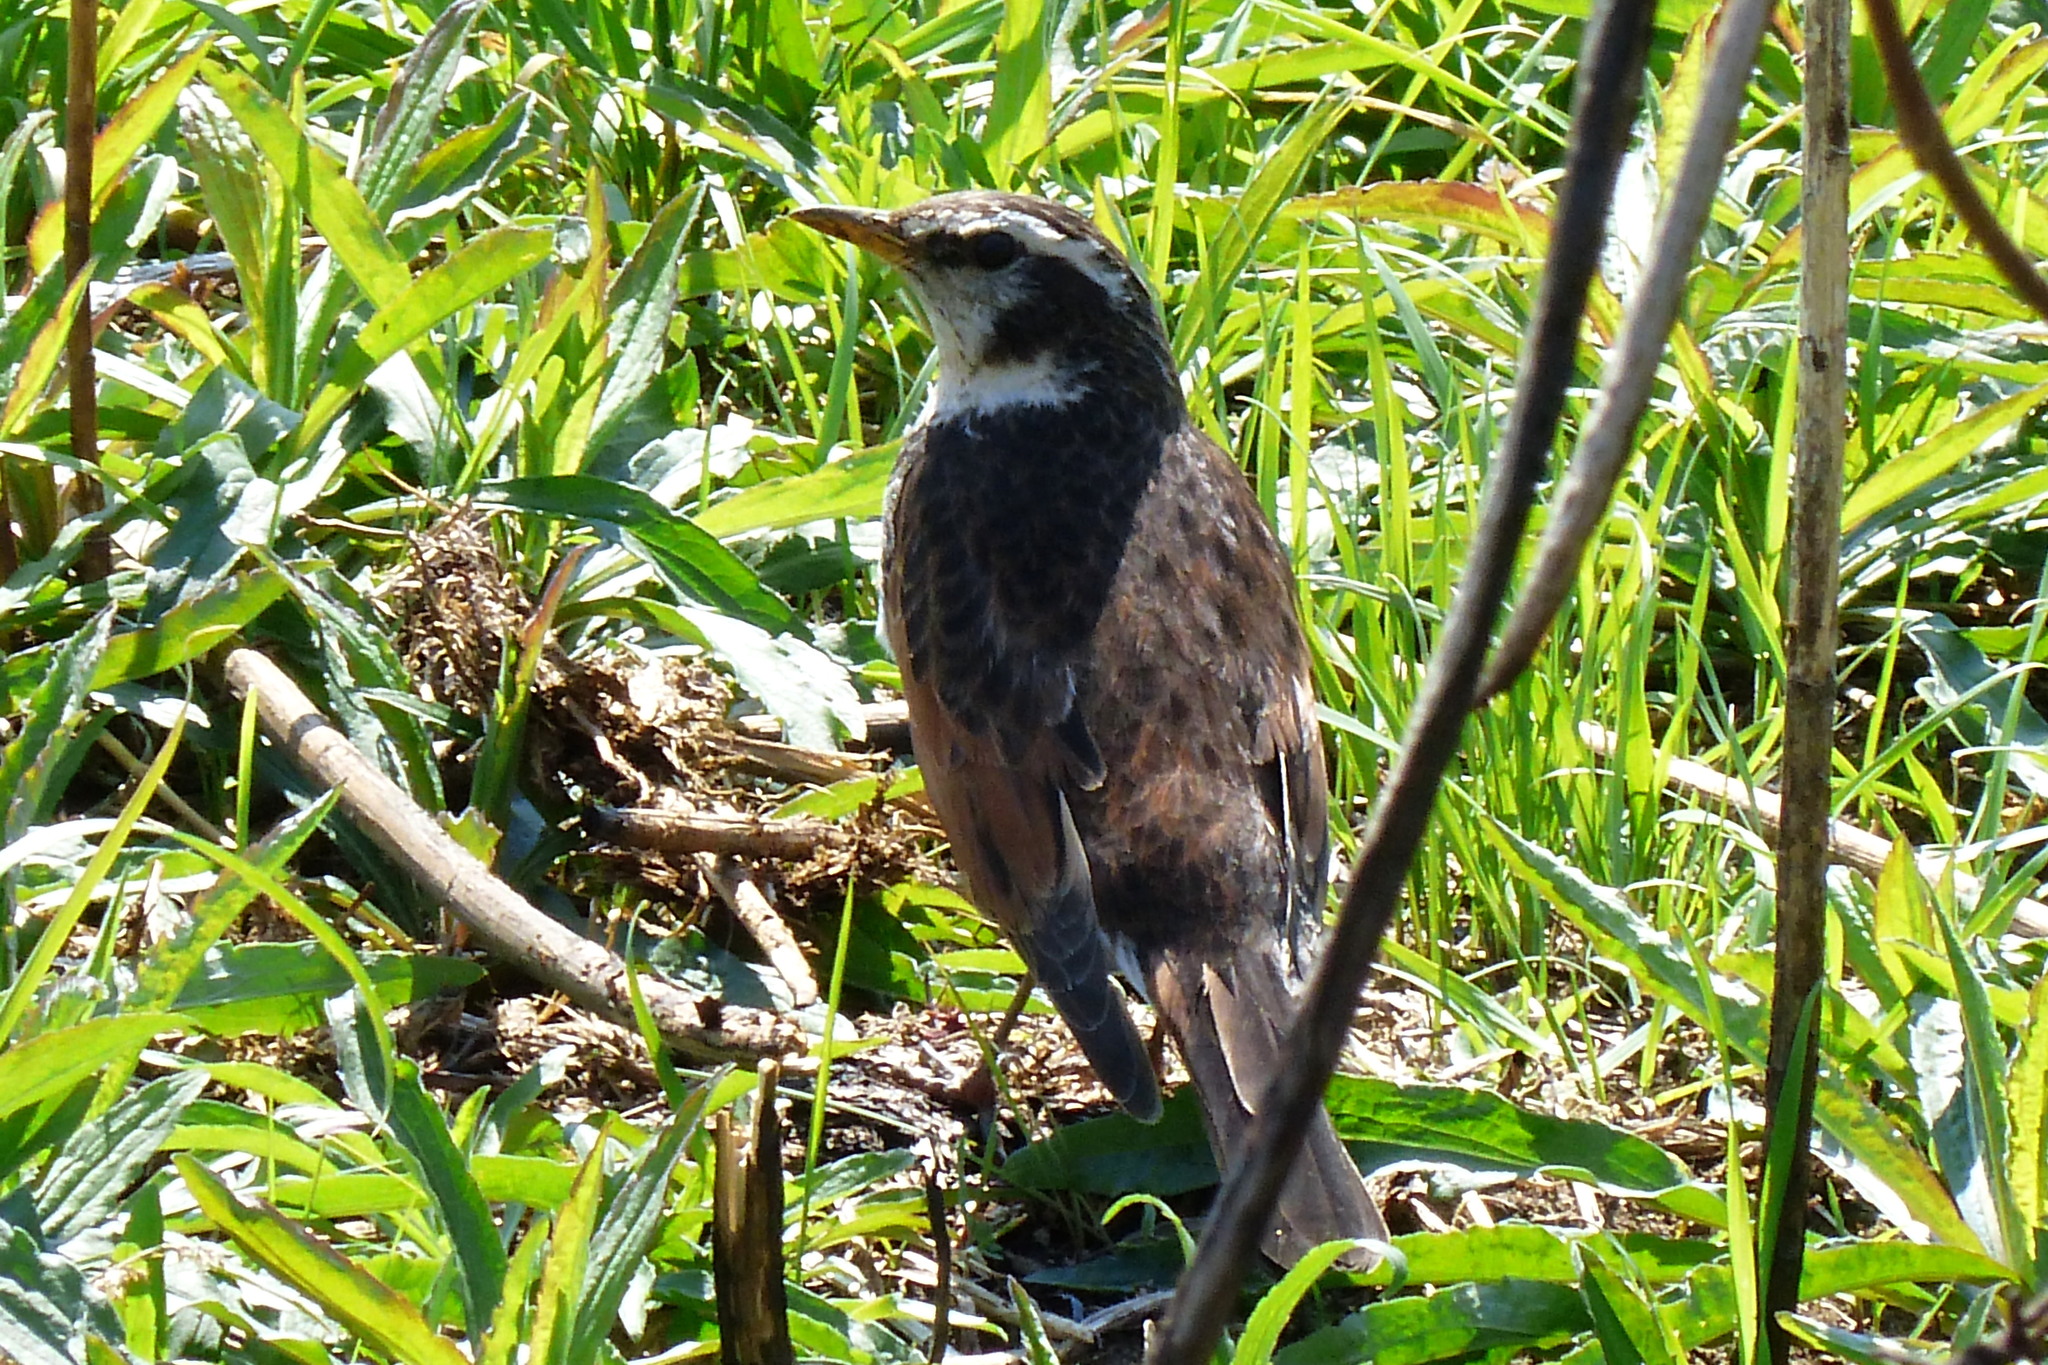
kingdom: Animalia
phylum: Chordata
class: Aves
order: Passeriformes
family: Turdidae
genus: Turdus
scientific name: Turdus eunomus
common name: Dusky thrush
